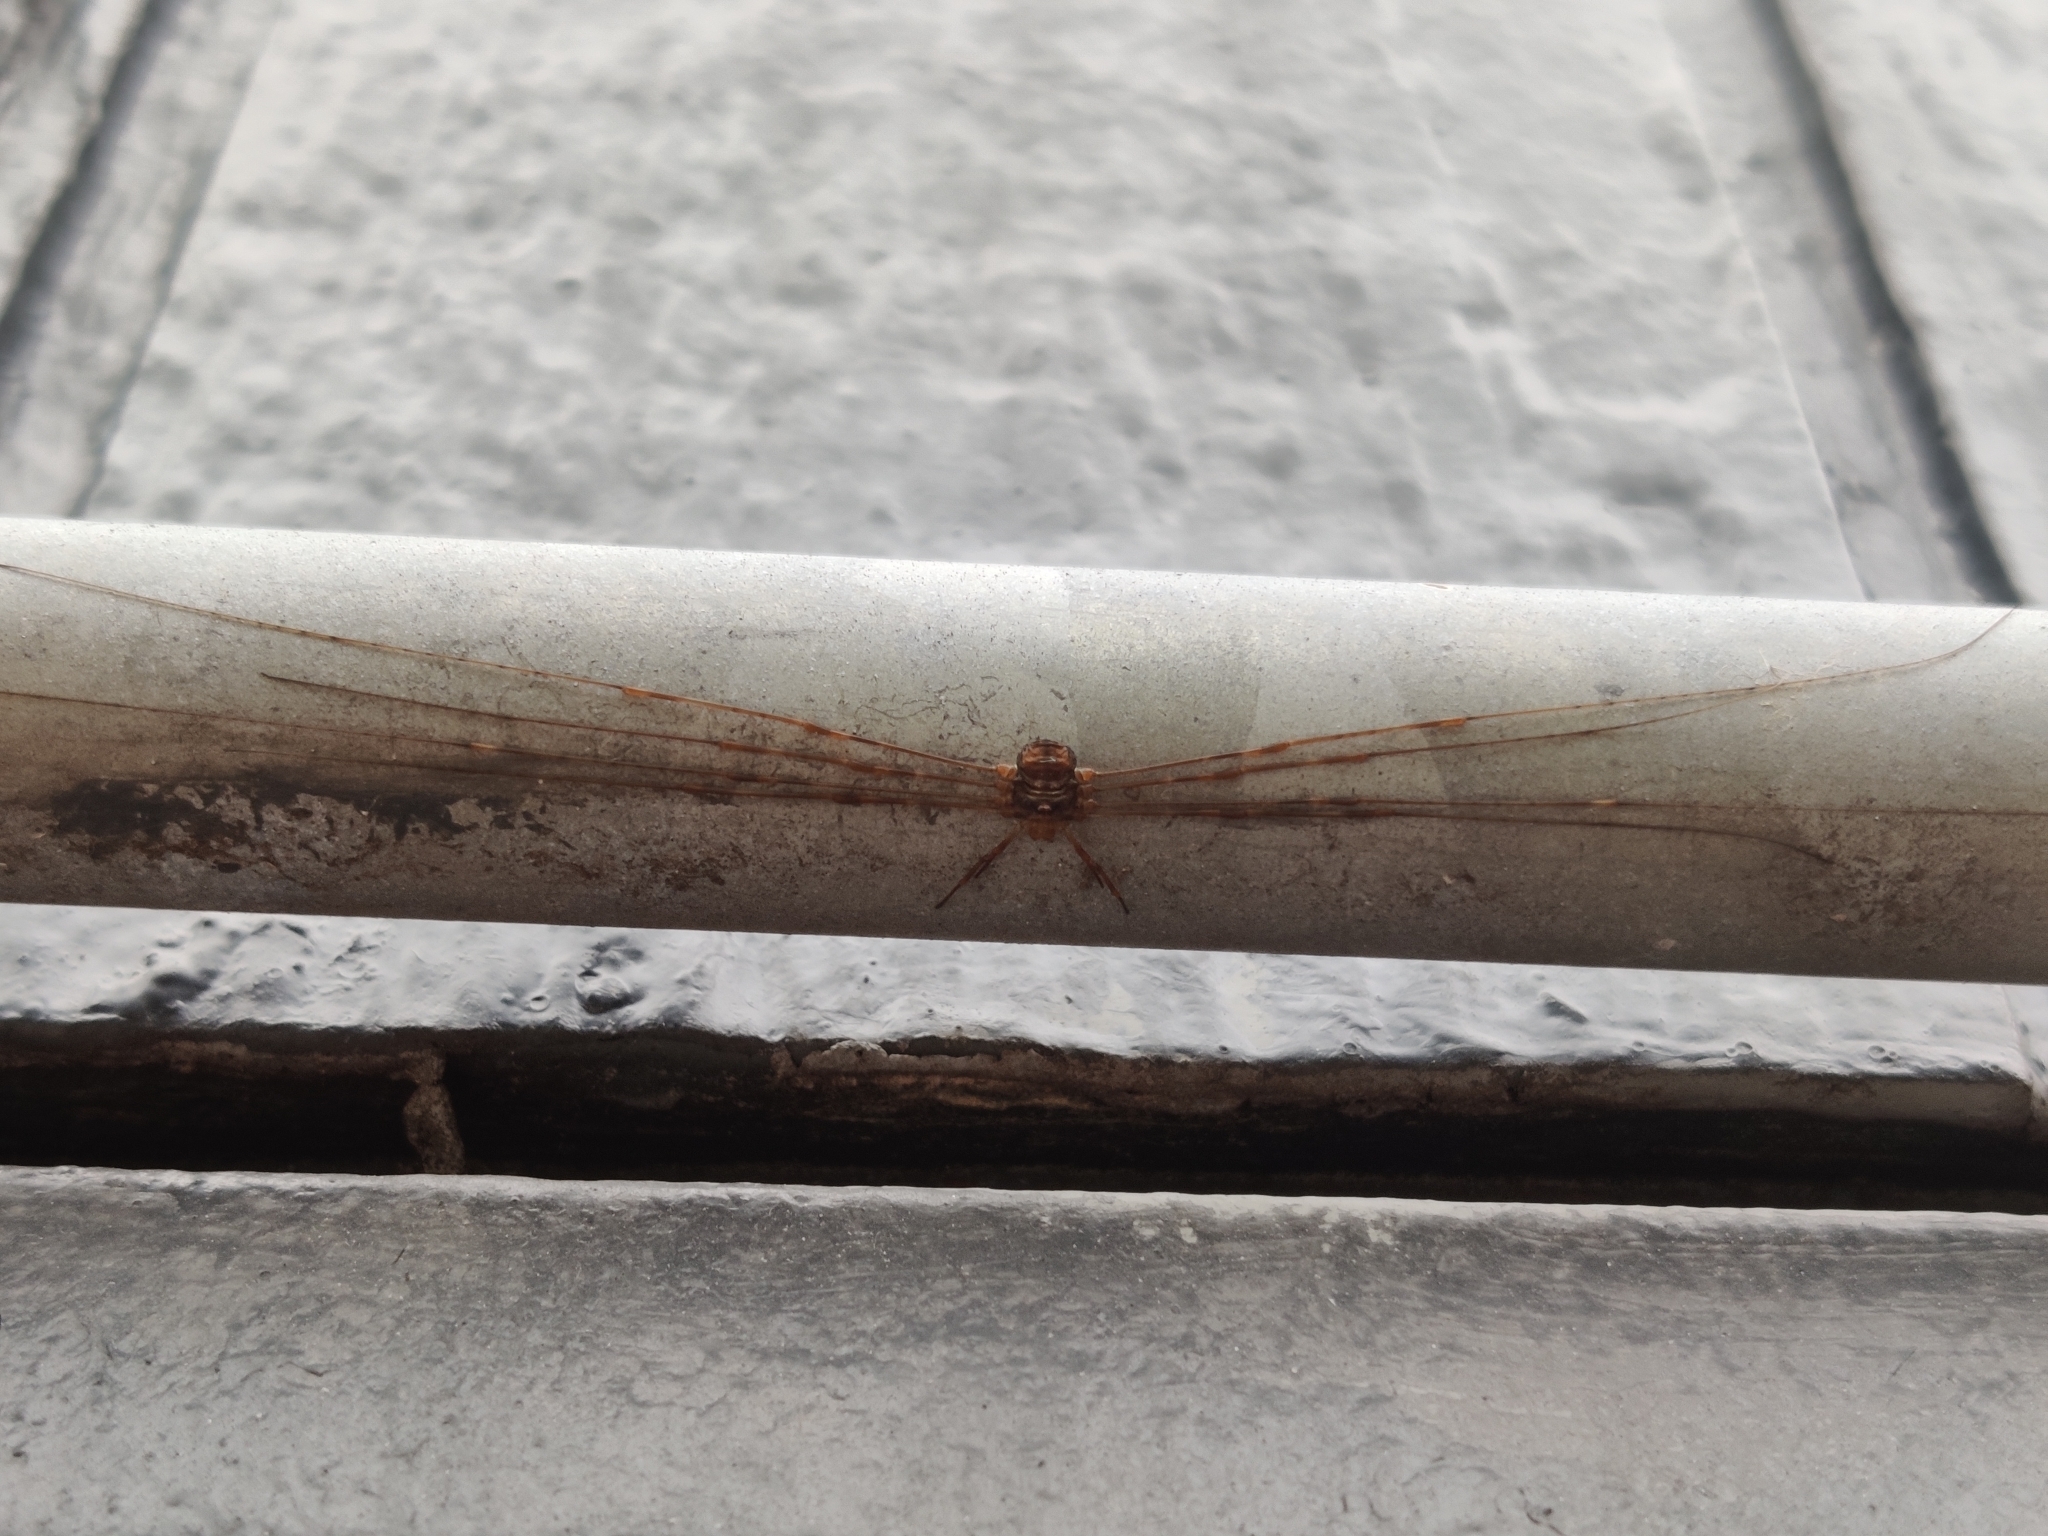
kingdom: Animalia
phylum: Arthropoda
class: Arachnida
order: Opiliones
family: Phalangiidae
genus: Dicranopalpus
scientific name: Dicranopalpus ramosus
